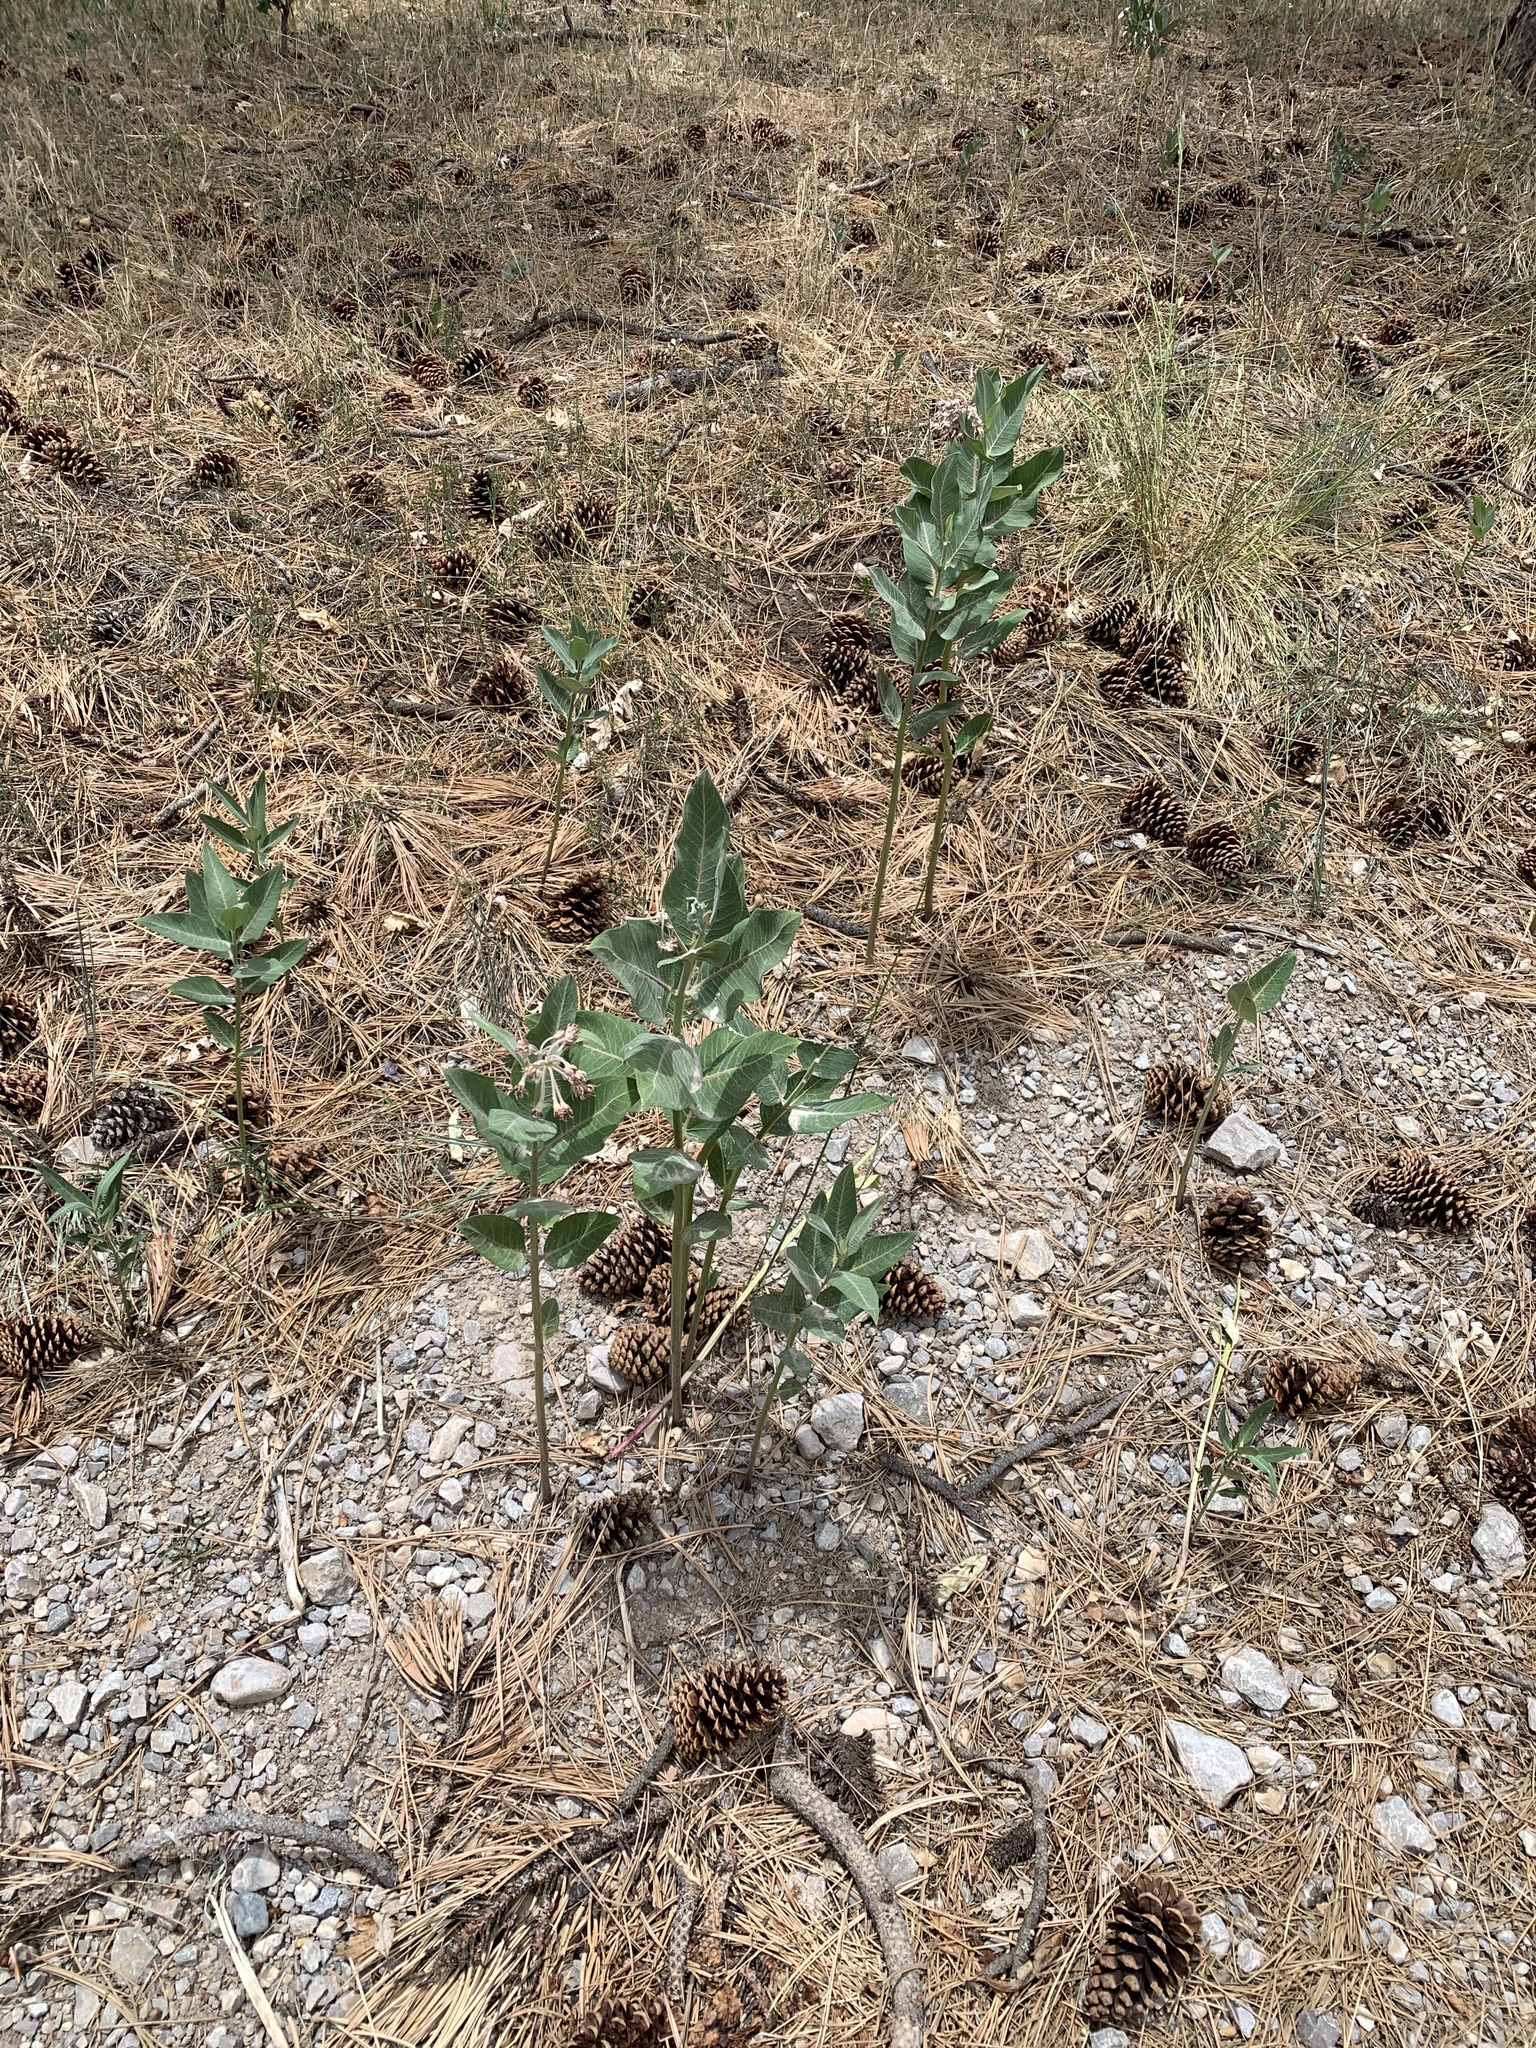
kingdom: Plantae
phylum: Tracheophyta
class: Magnoliopsida
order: Gentianales
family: Apocynaceae
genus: Asclepias
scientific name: Asclepias speciosa
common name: Showy milkweed
